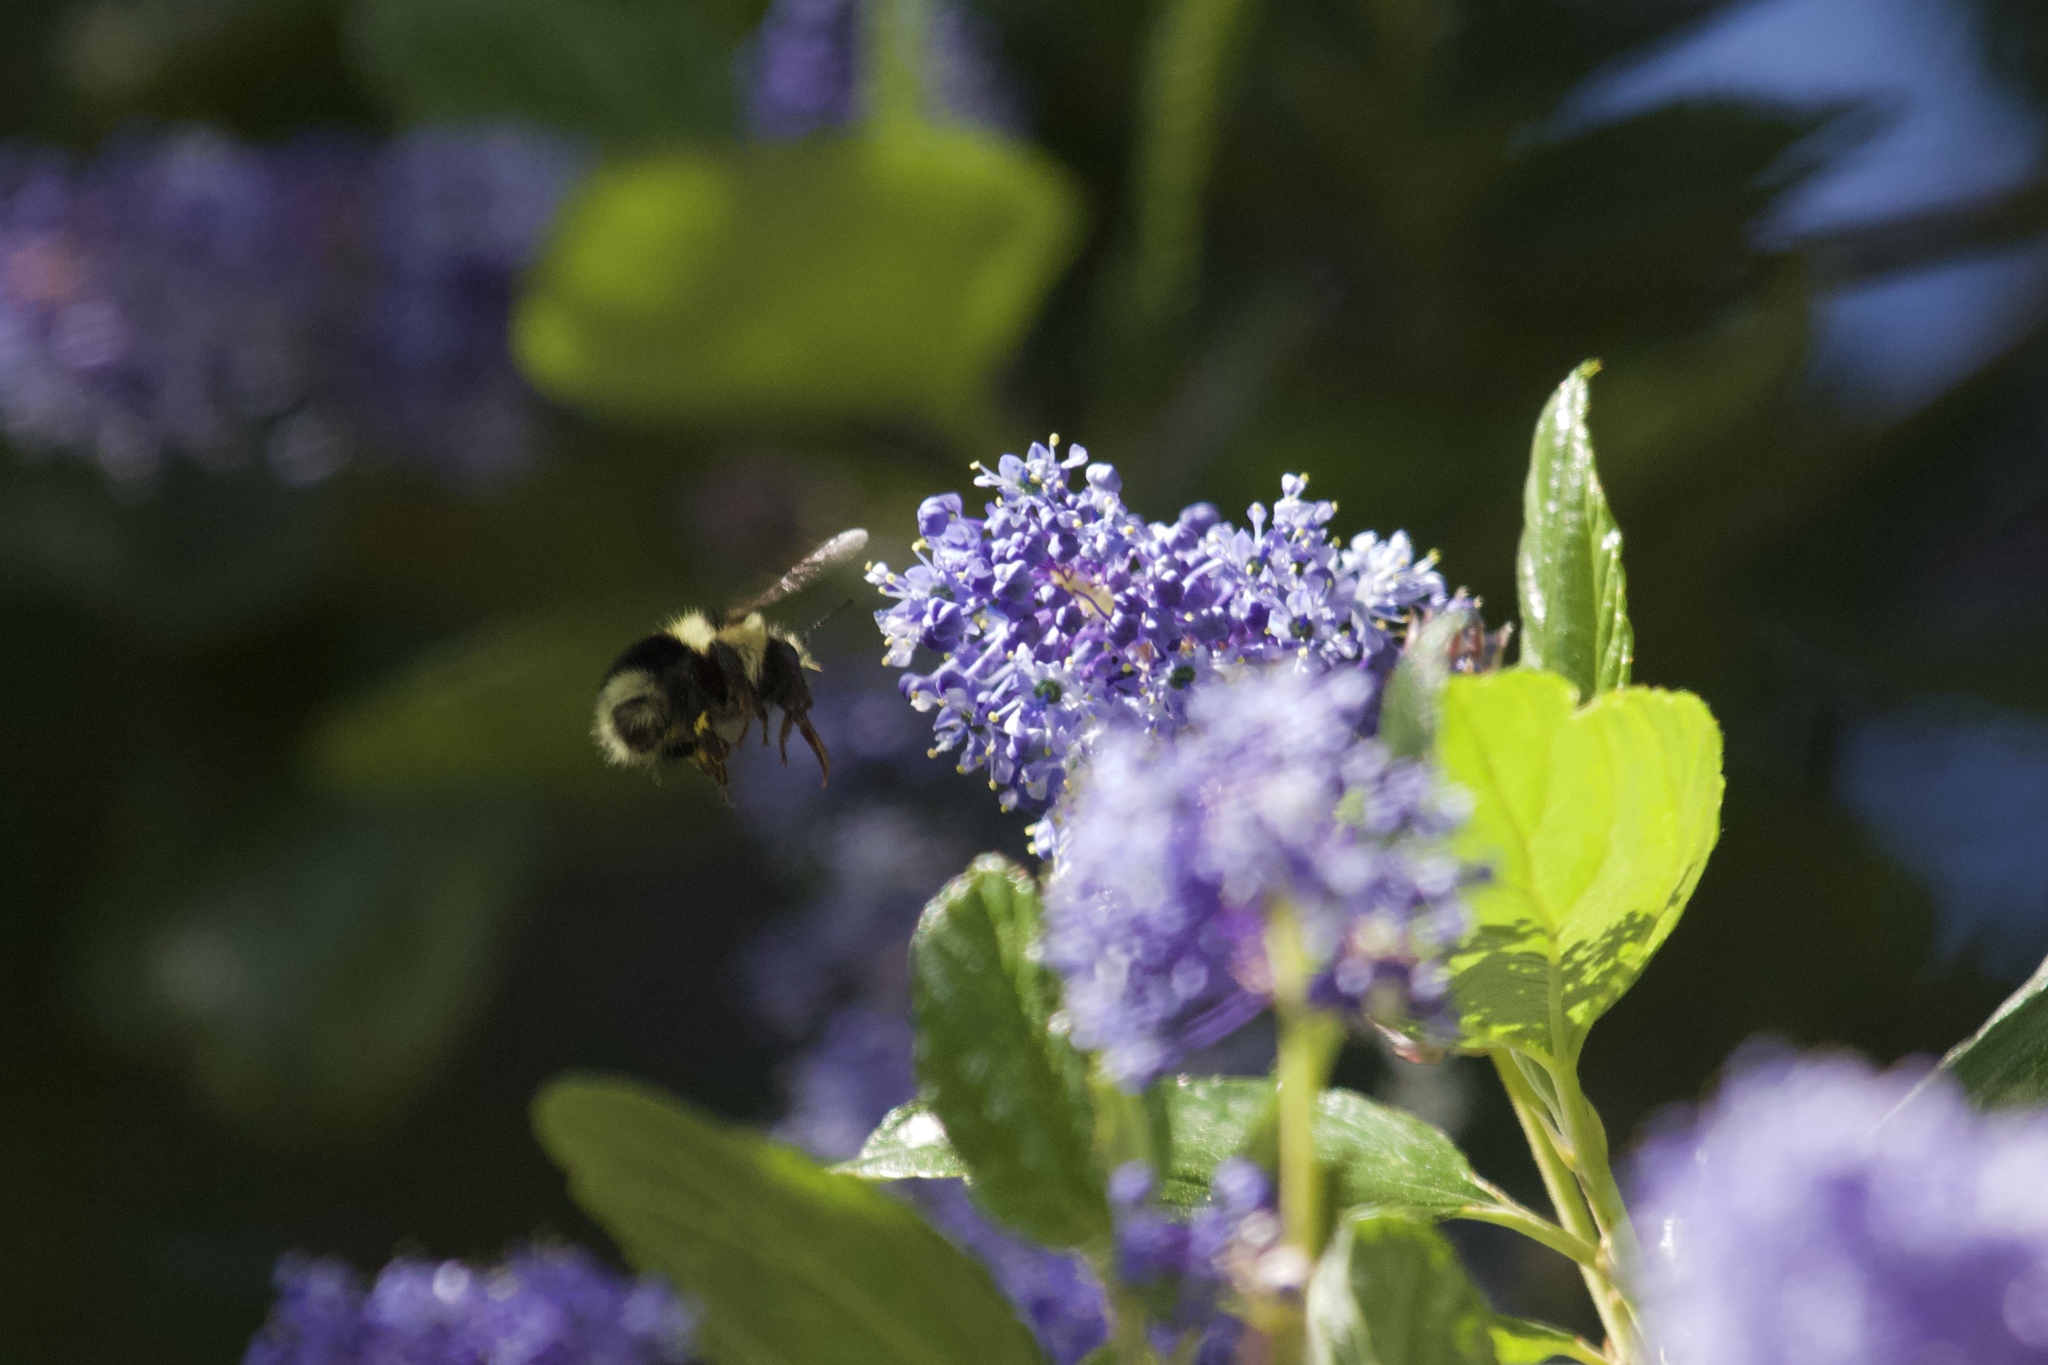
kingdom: Animalia
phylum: Arthropoda
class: Insecta
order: Hymenoptera
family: Apidae
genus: Bombus
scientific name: Bombus melanopygus
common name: Black tail bumble bee
